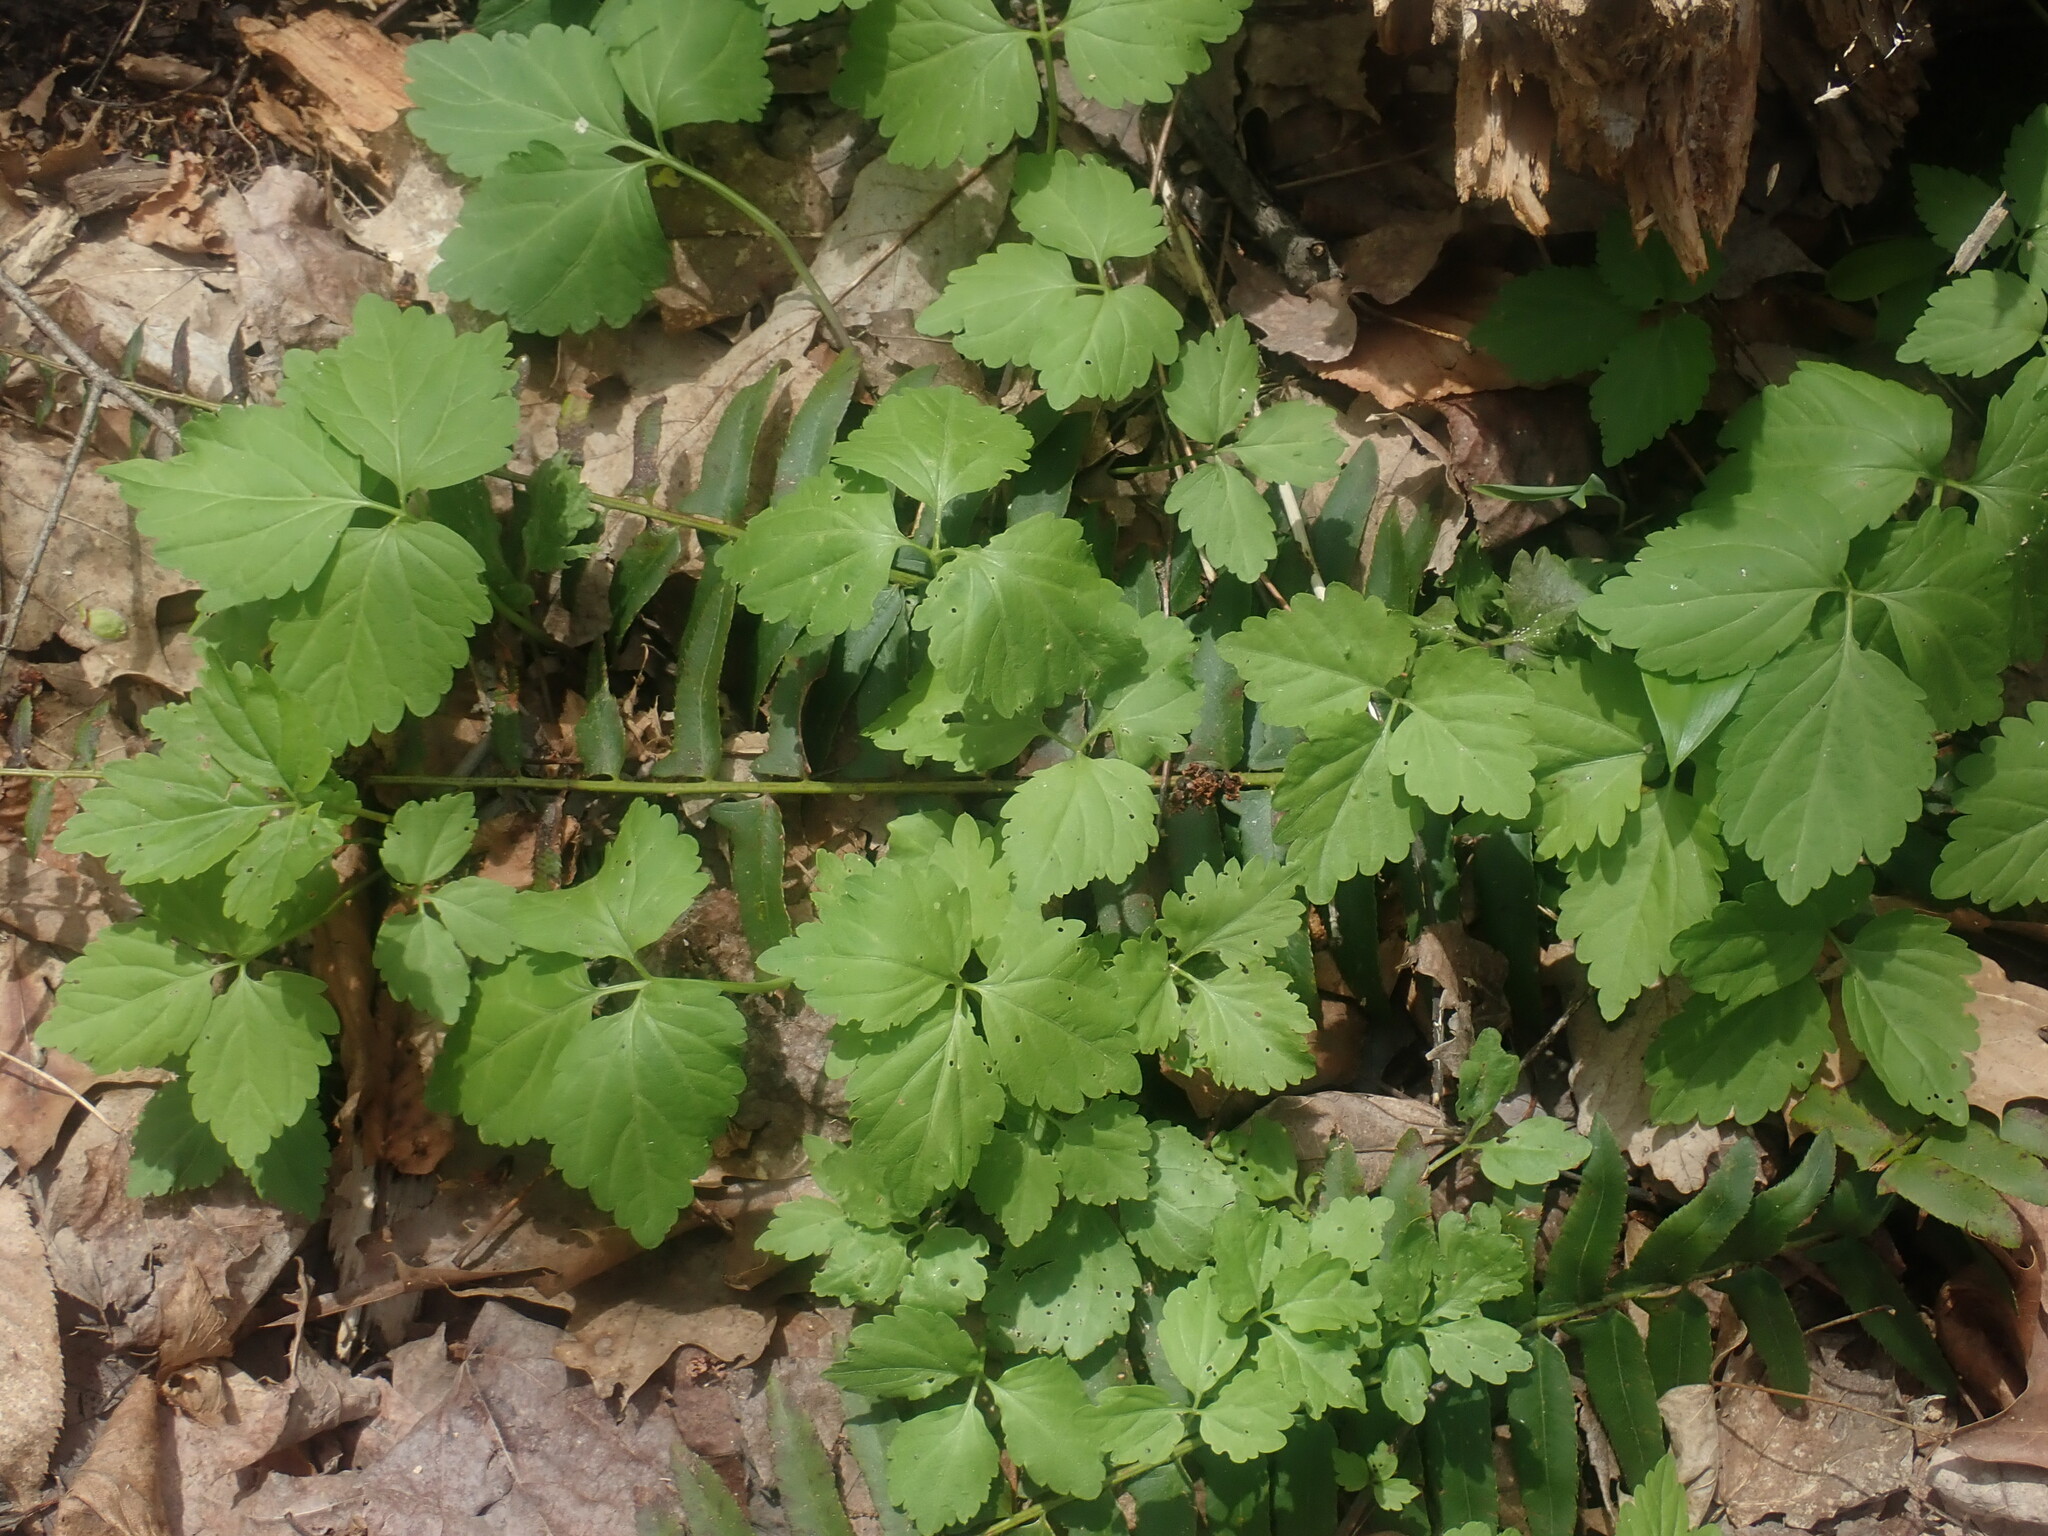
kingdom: Plantae
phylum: Tracheophyta
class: Magnoliopsida
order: Brassicales
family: Brassicaceae
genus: Cardamine
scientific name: Cardamine diphylla
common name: Broad-leaved toothwort
